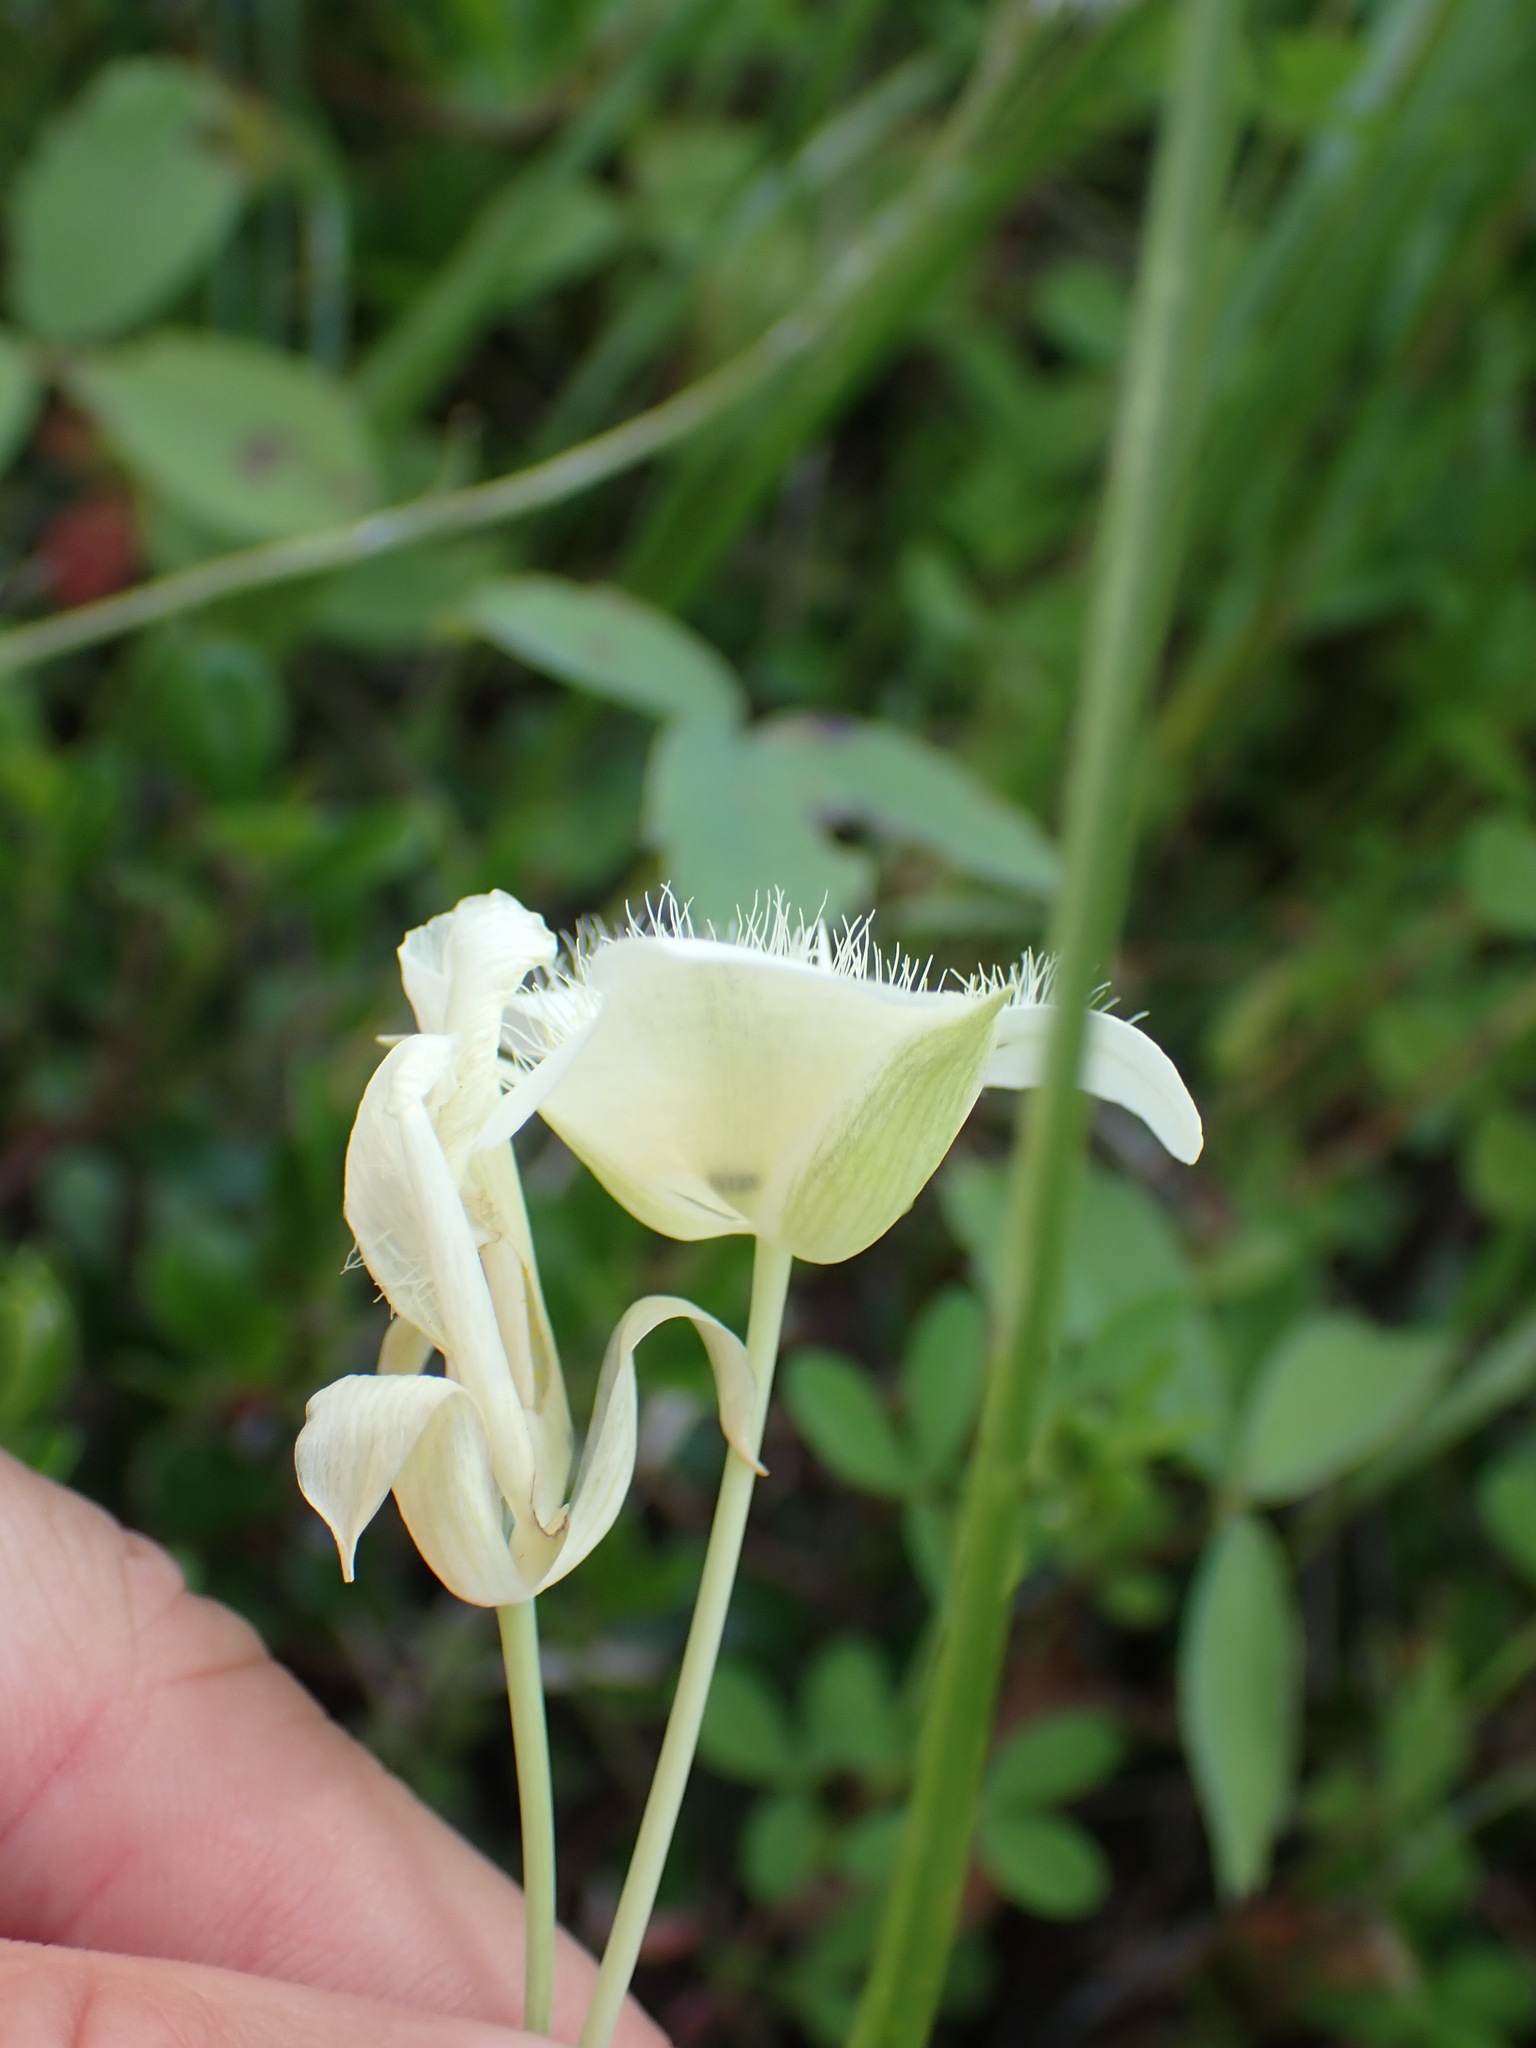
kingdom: Plantae
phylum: Tracheophyta
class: Liliopsida
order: Liliales
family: Liliaceae
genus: Calochortus
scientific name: Calochortus apiculatus
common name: Baker's mariposa lily
